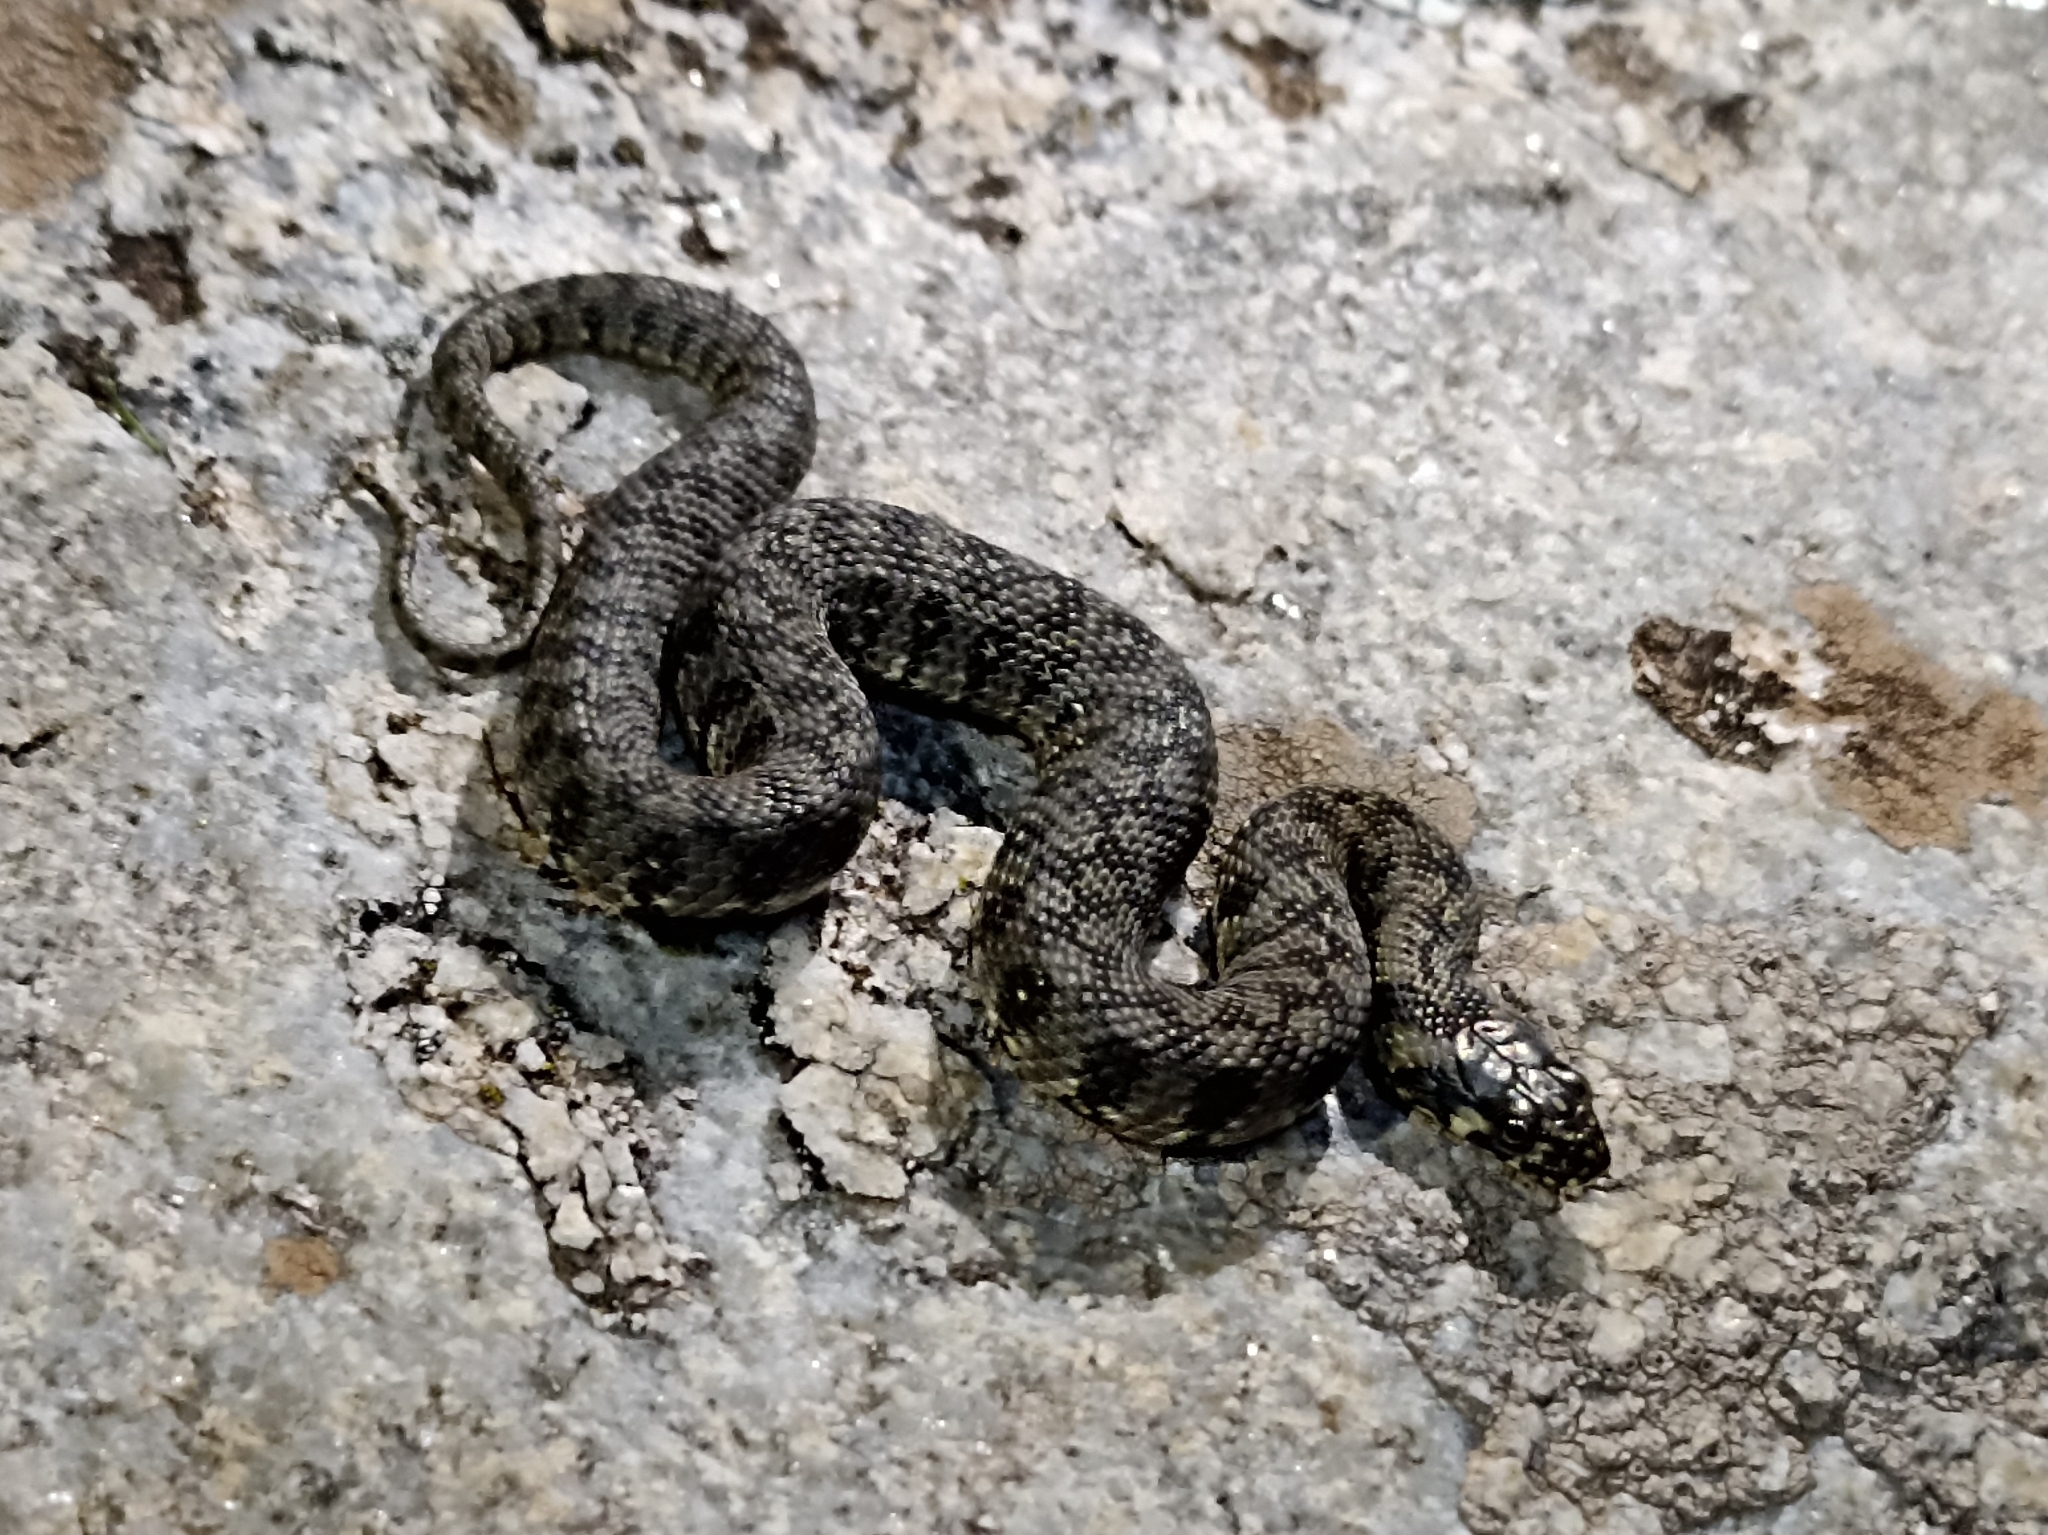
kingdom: Animalia
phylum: Chordata
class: Squamata
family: Colubridae
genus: Natrix
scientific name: Natrix maura
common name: Viperine water snake
